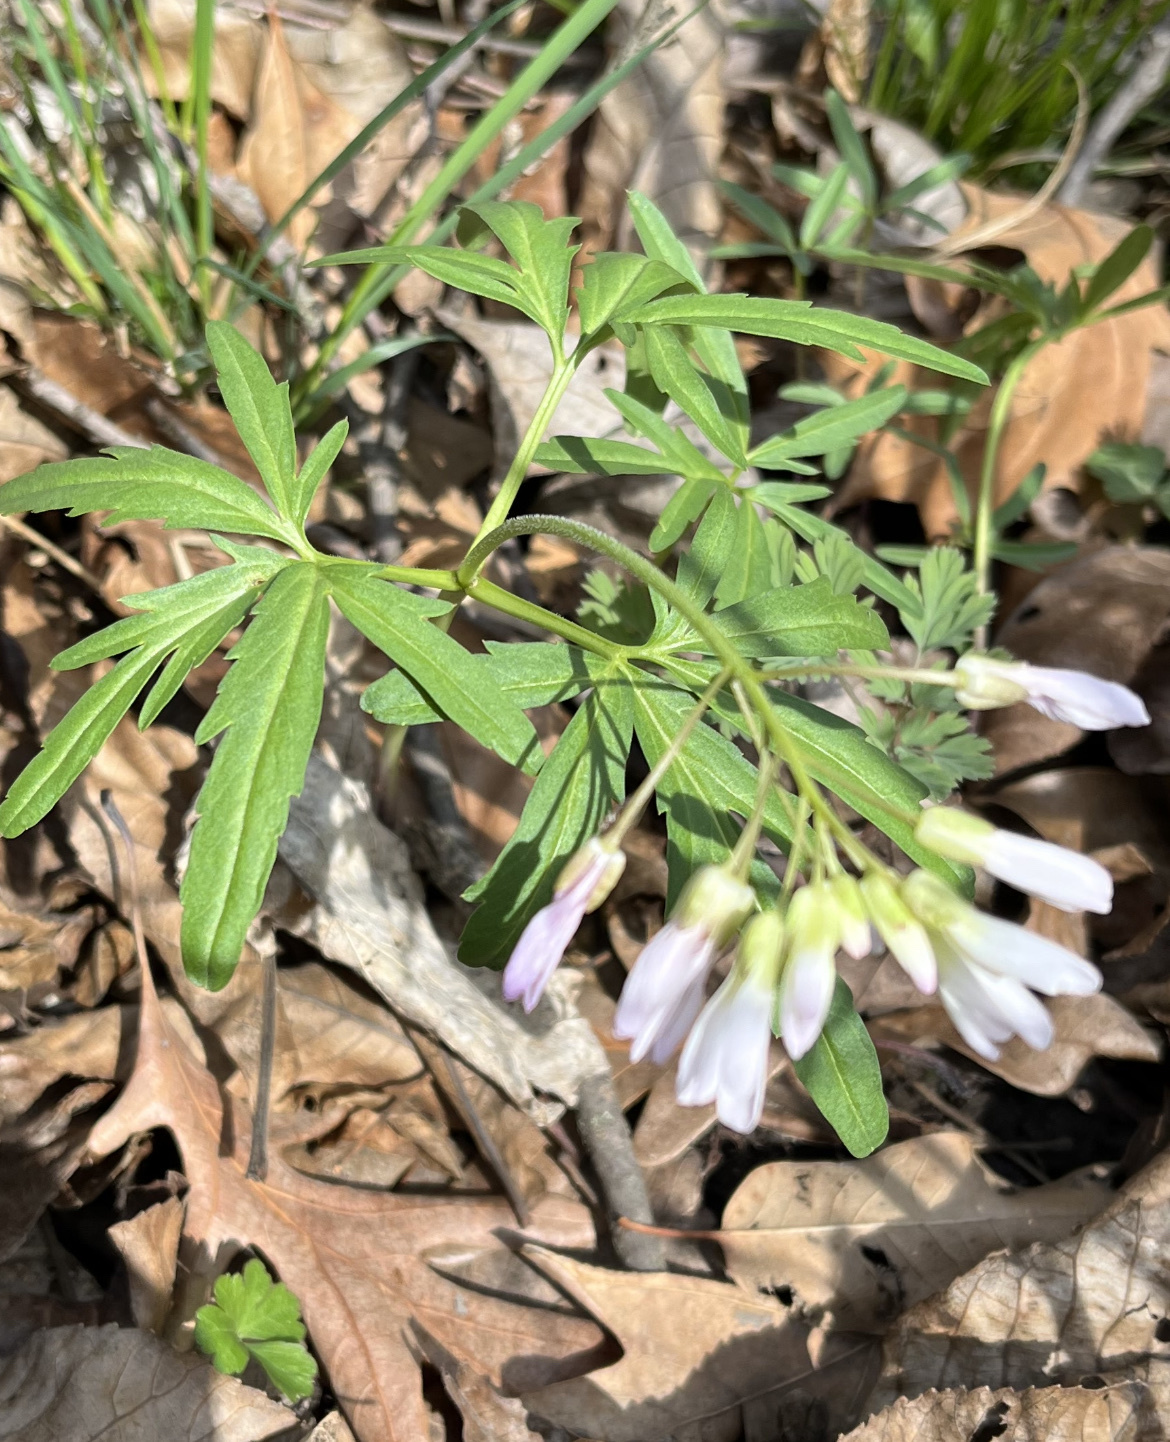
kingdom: Plantae
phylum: Tracheophyta
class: Magnoliopsida
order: Brassicales
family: Brassicaceae
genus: Cardamine
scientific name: Cardamine concatenata
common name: Cut-leaf toothcup
